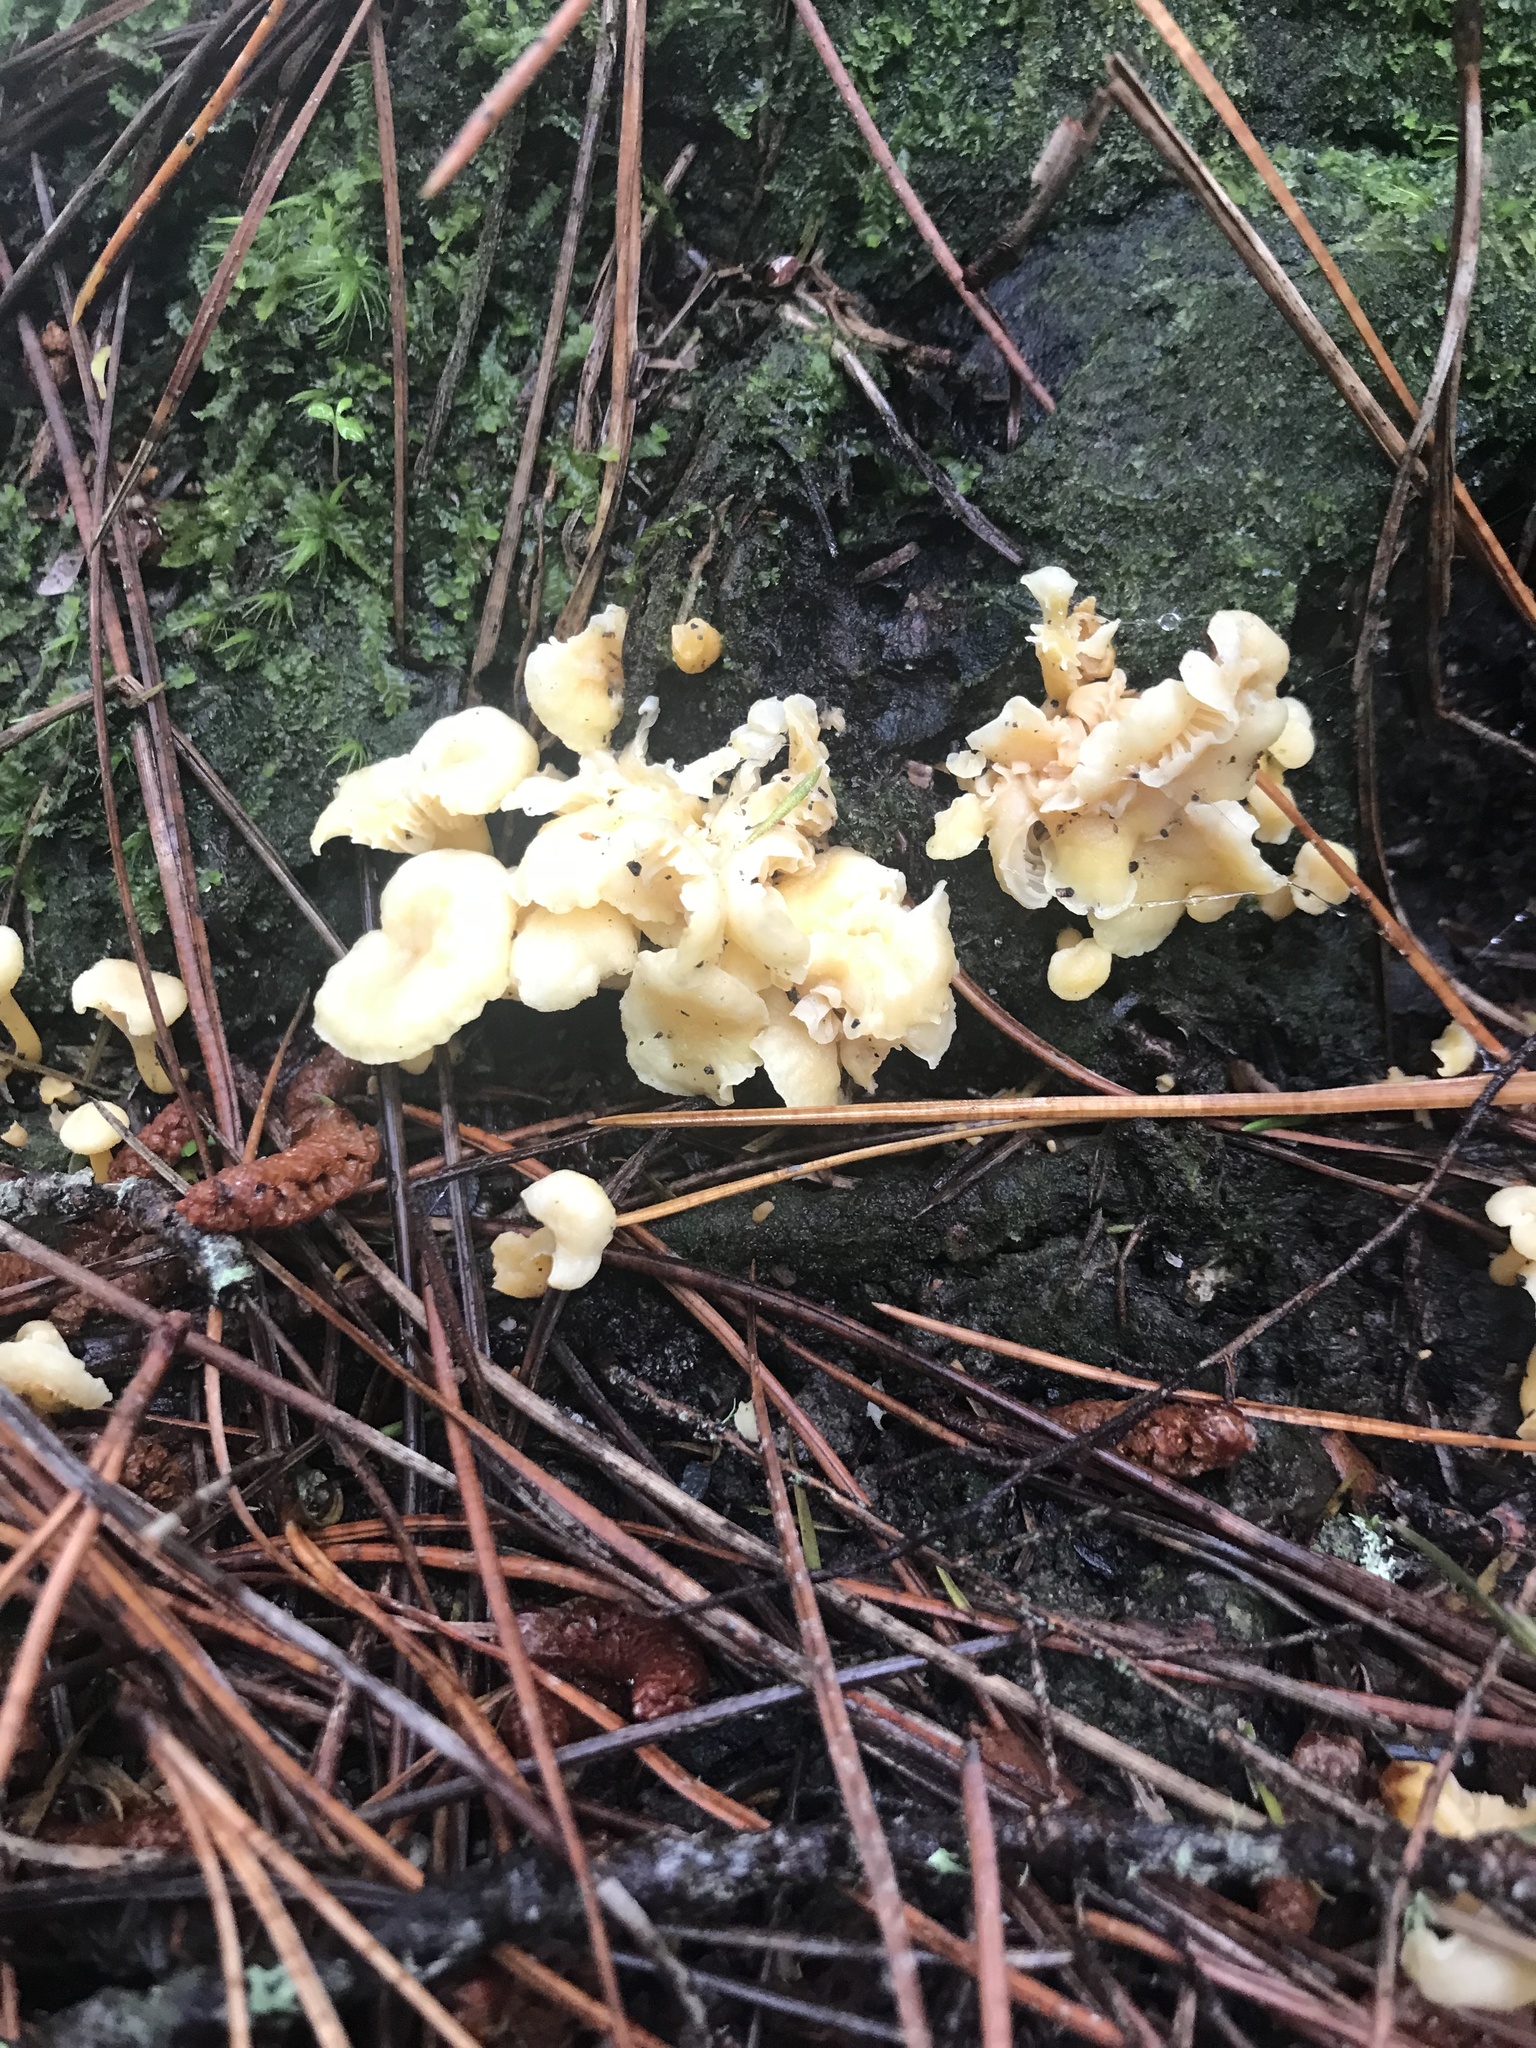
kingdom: Fungi
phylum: Basidiomycota
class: Agaricomycetes
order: Cantharellales
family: Hydnaceae
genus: Cantharellus
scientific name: Cantharellus wellingtonensis
